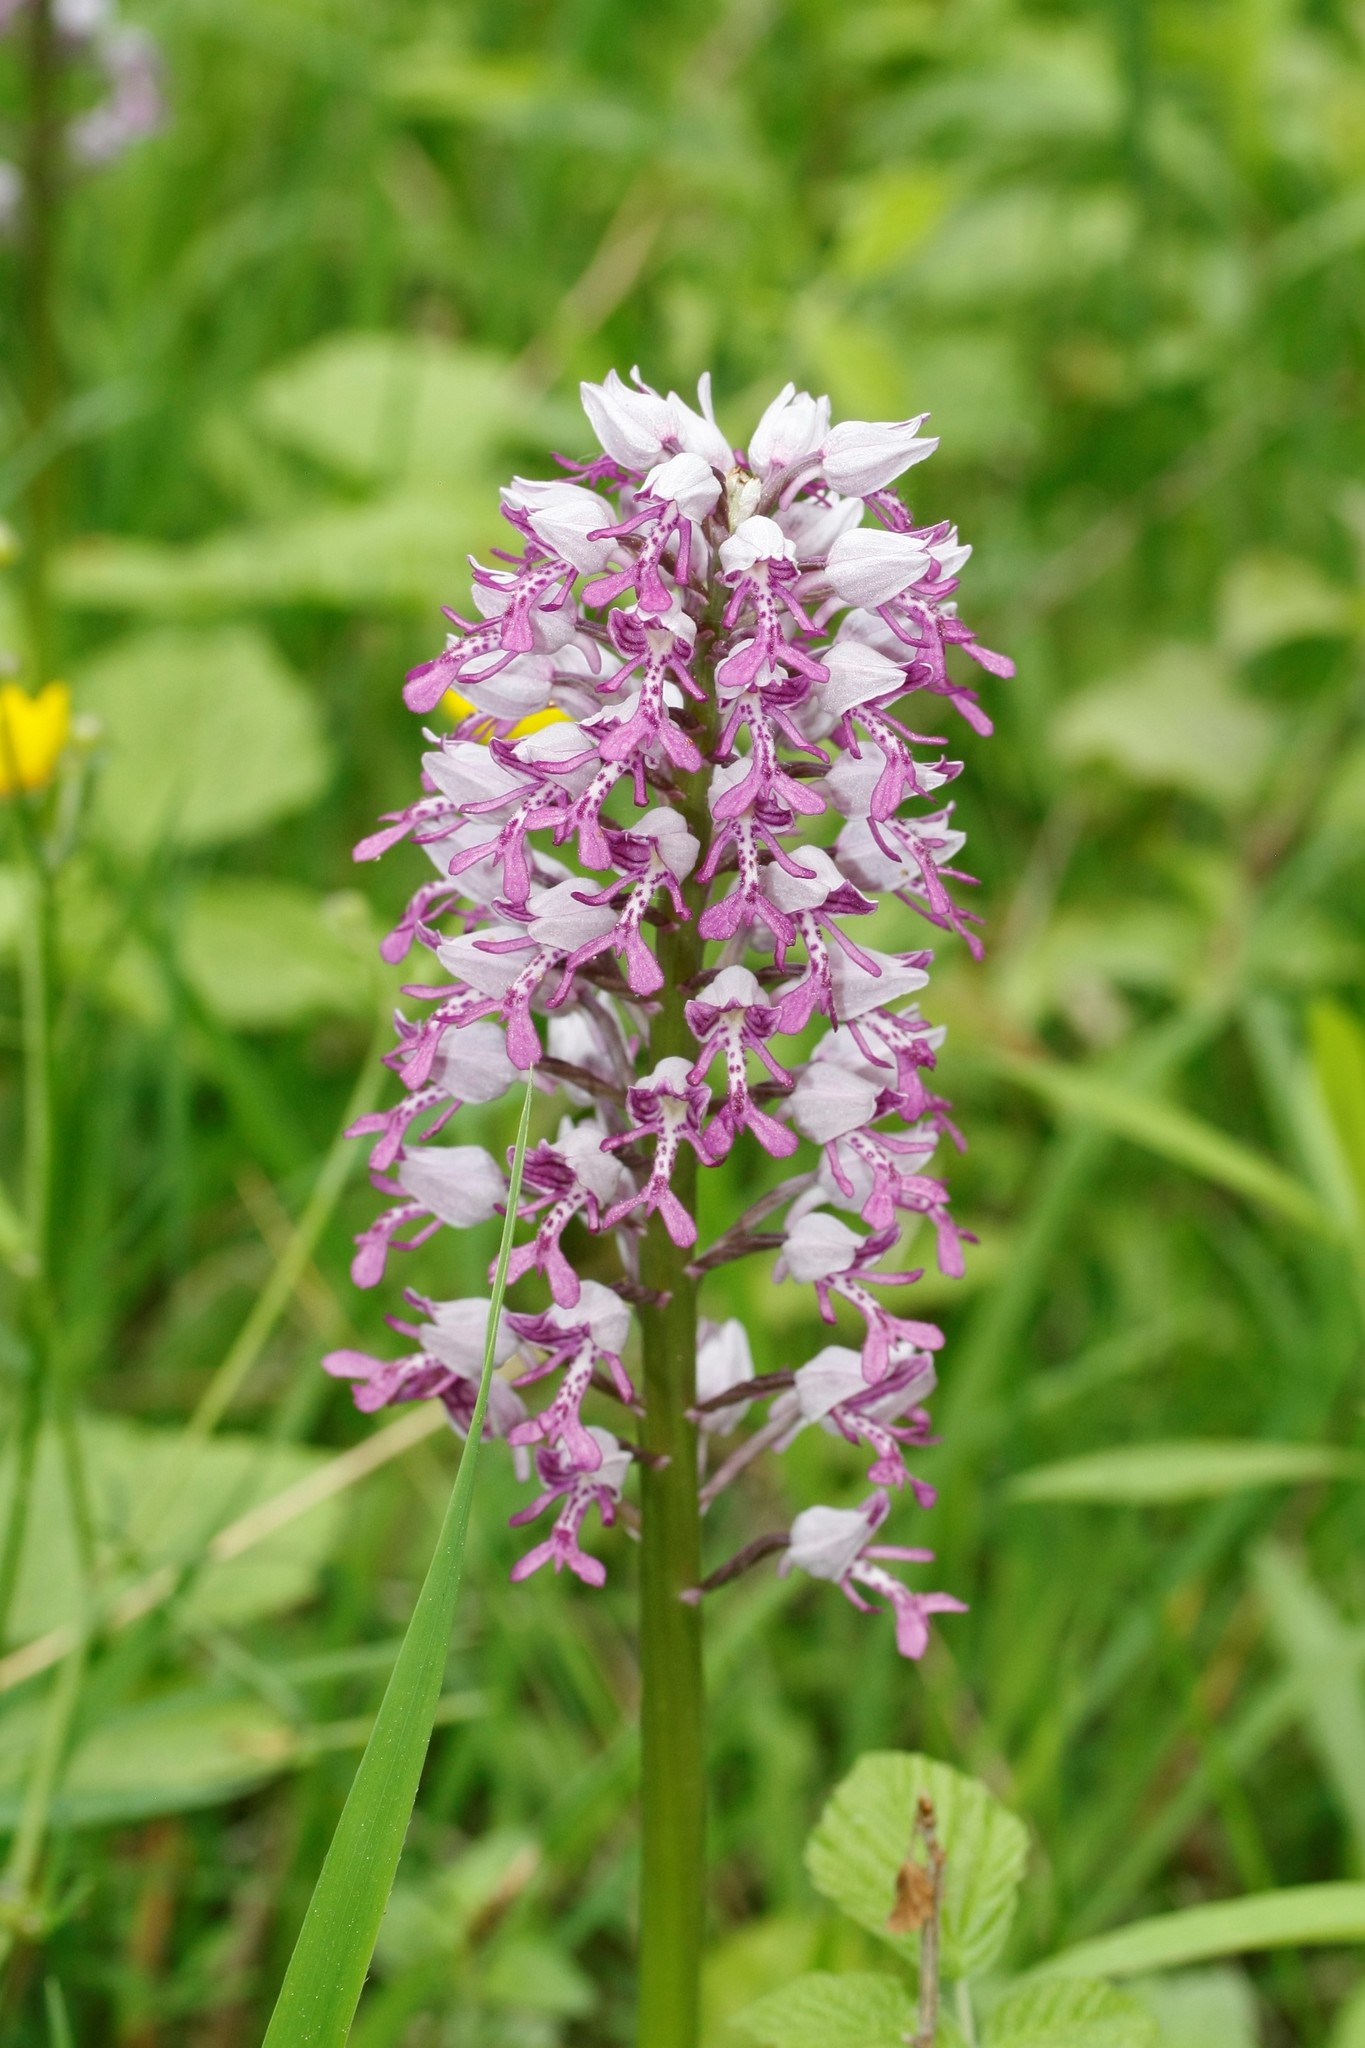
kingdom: Plantae
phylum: Tracheophyta
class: Liliopsida
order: Asparagales
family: Orchidaceae
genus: Orchis
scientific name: Orchis militaris
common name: Military orchid
